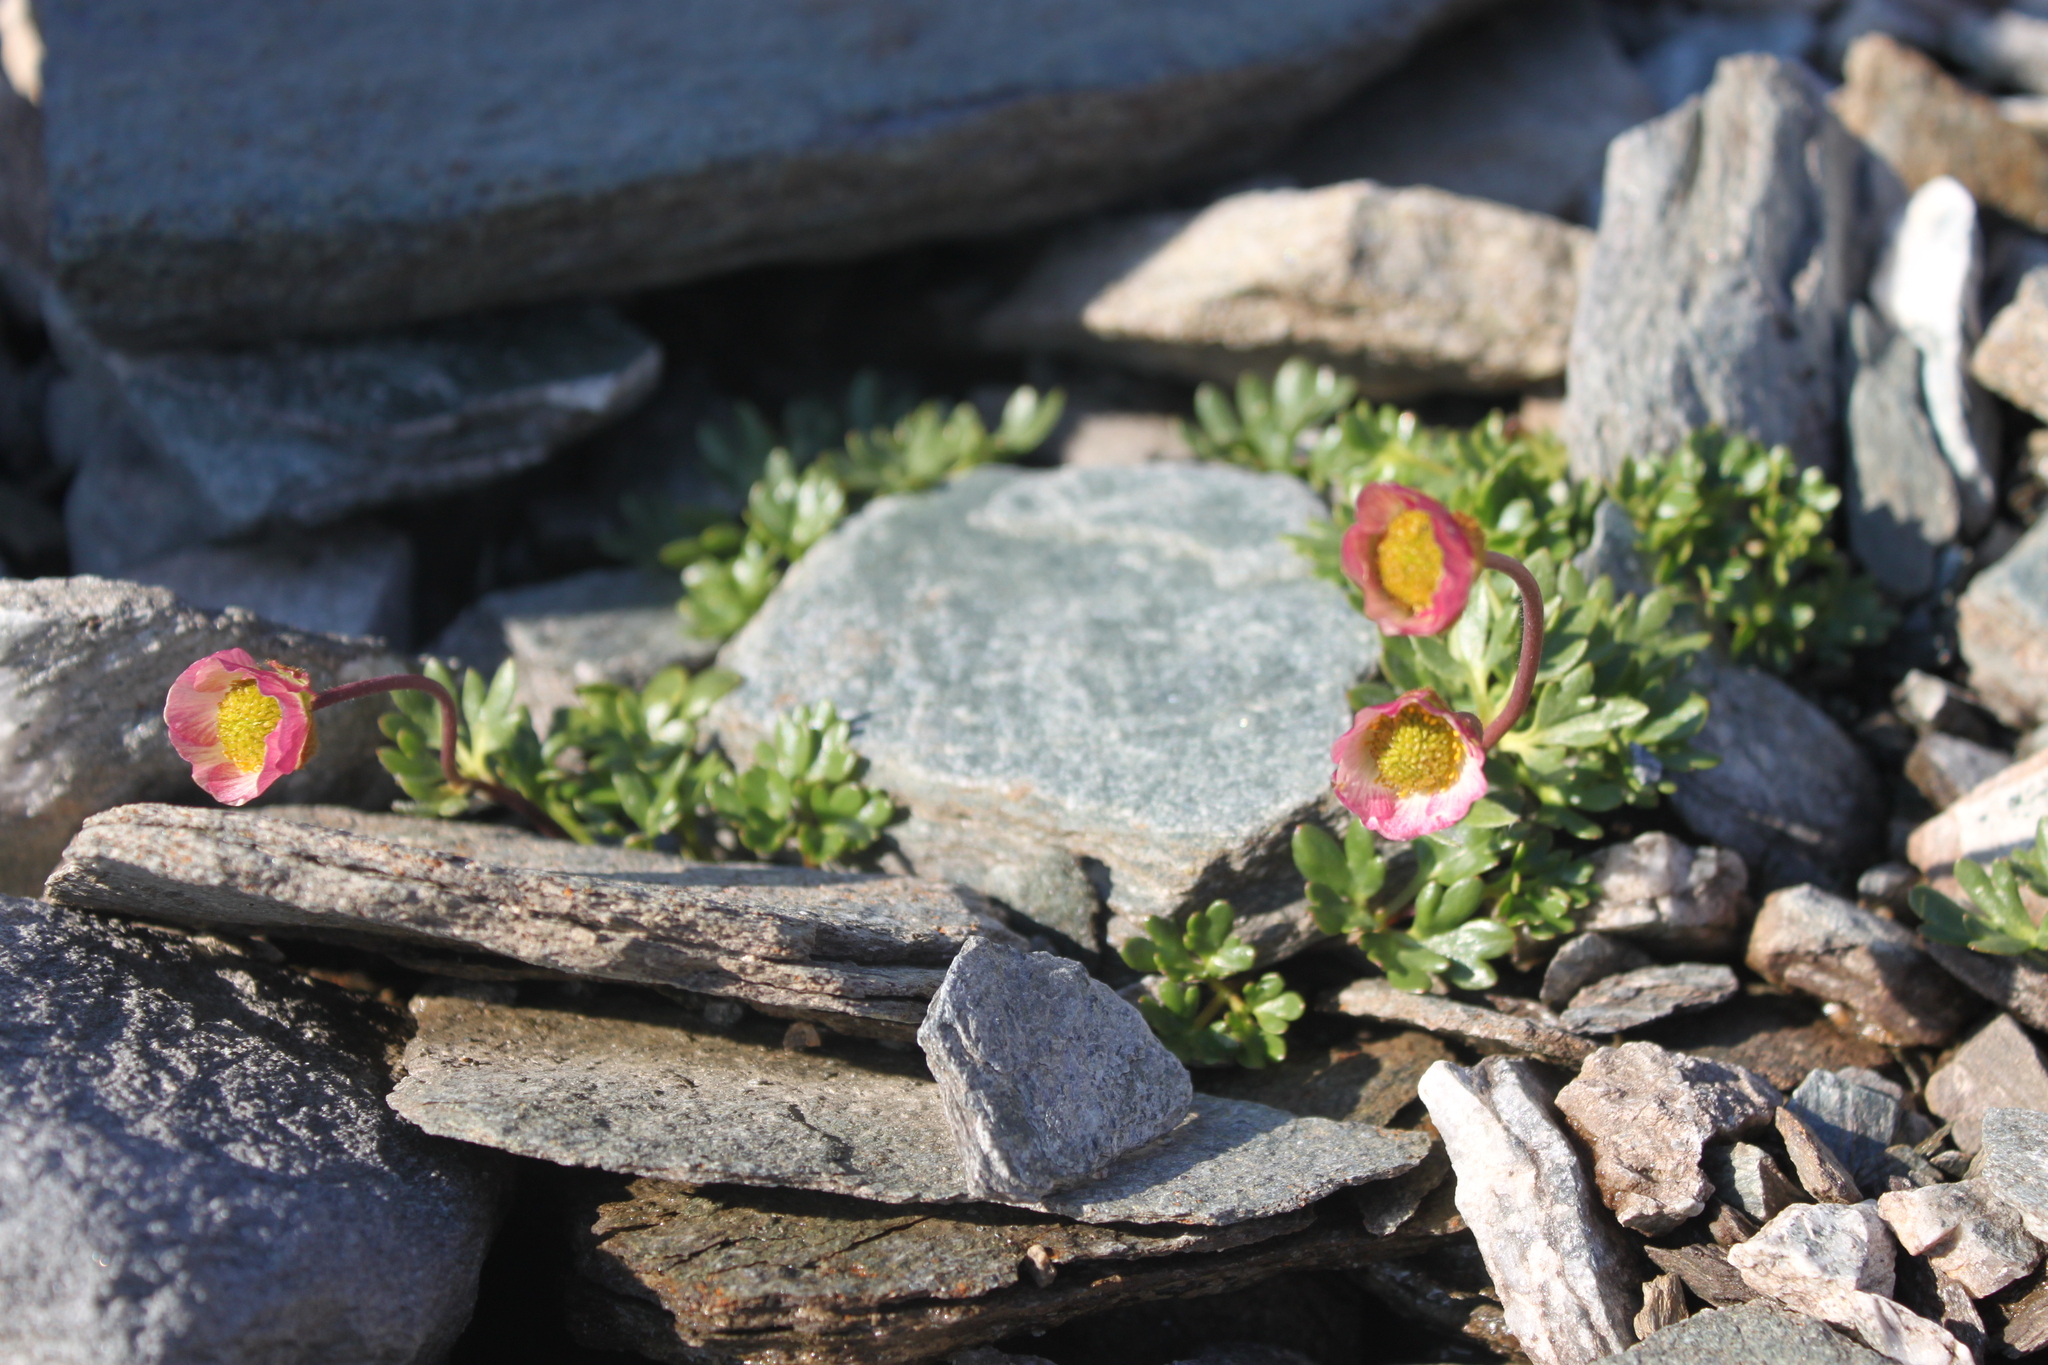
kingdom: Plantae
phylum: Tracheophyta
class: Magnoliopsida
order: Ranunculales
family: Ranunculaceae
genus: Ranunculus
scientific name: Ranunculus glacialis
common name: Glacier buttercup
